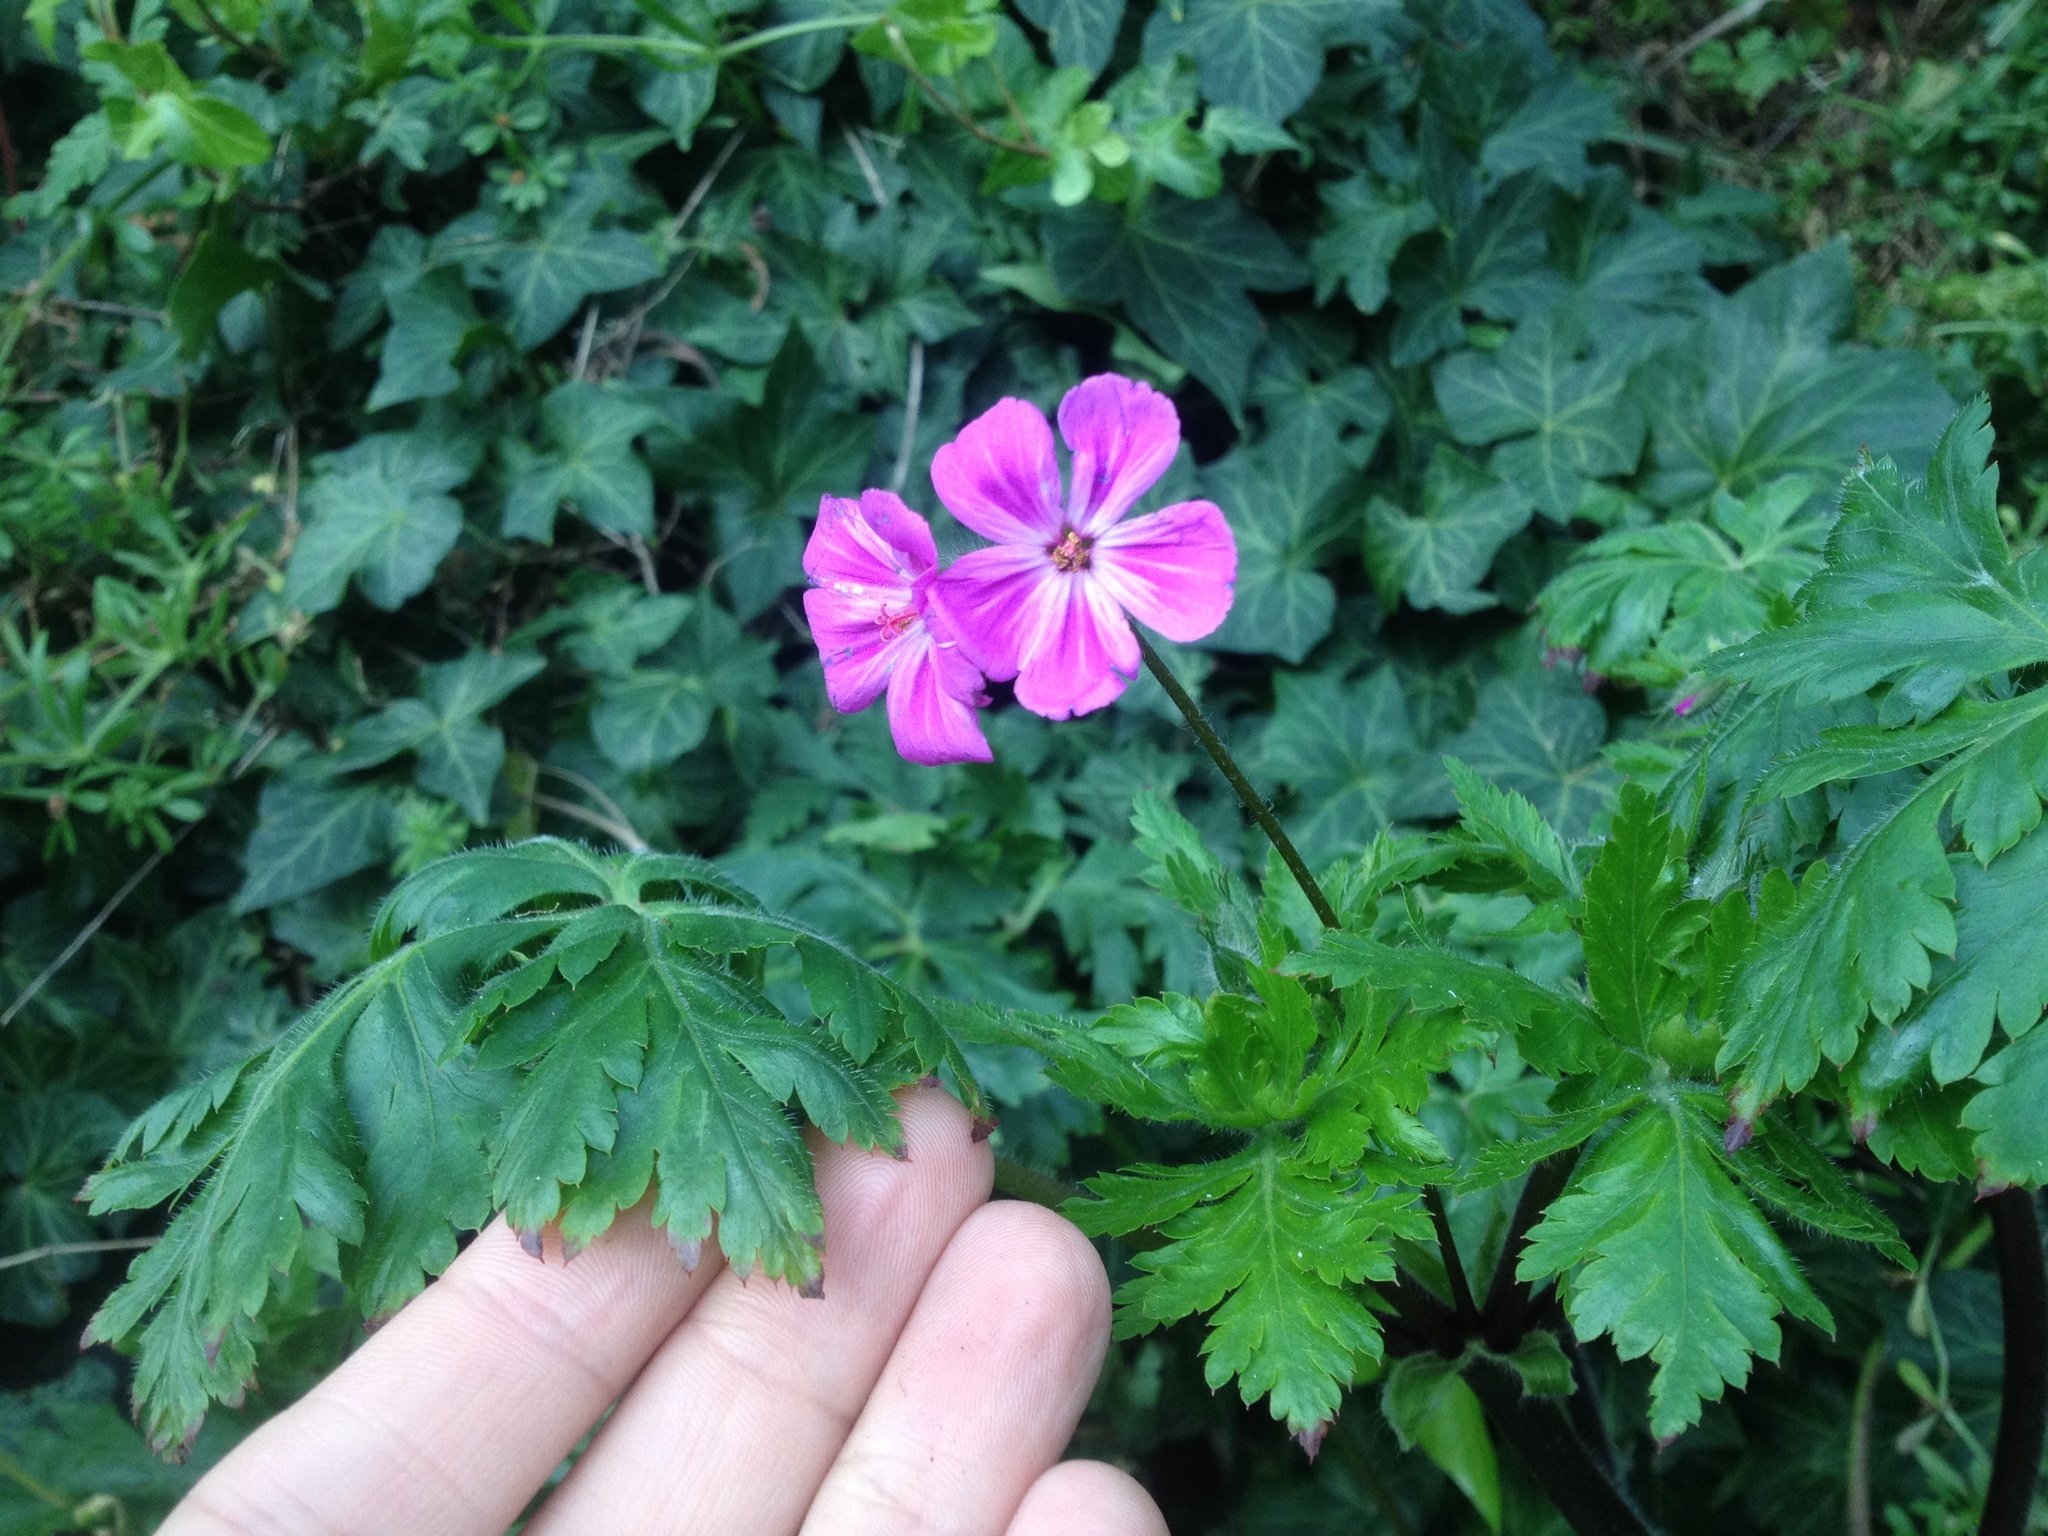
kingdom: Plantae
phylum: Tracheophyta
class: Magnoliopsida
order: Geraniales
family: Geraniaceae
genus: Geranium
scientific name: Geranium yeoi
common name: Greater herb robert
